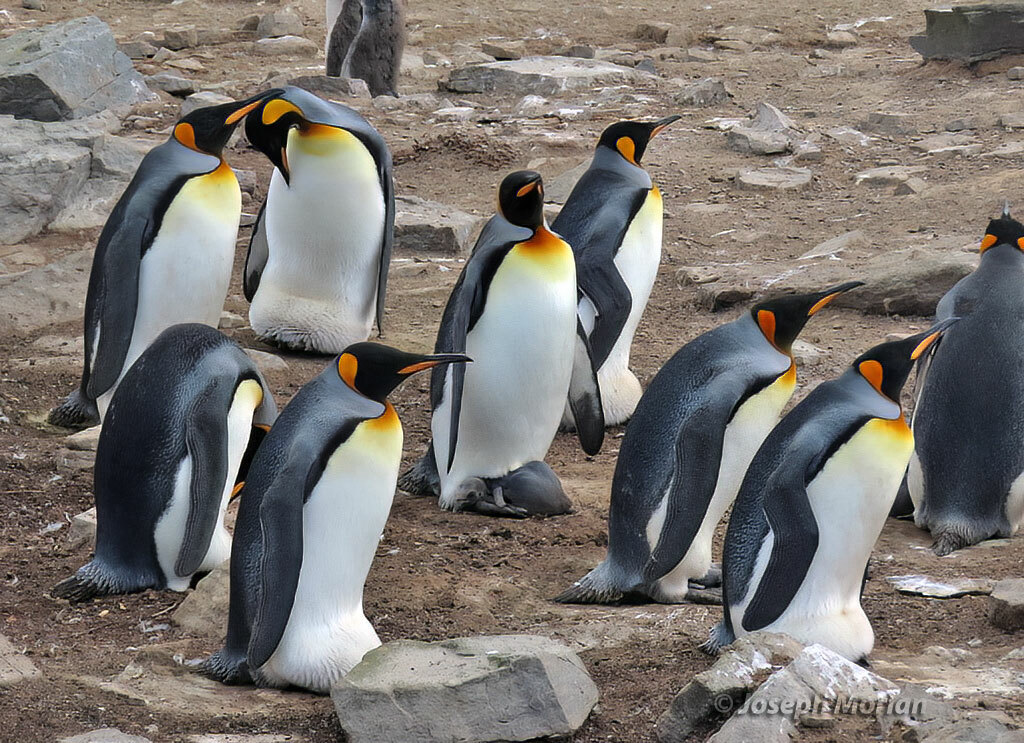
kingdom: Animalia
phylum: Chordata
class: Aves
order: Sphenisciformes
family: Spheniscidae
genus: Aptenodytes
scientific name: Aptenodytes patagonicus
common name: King penguin
